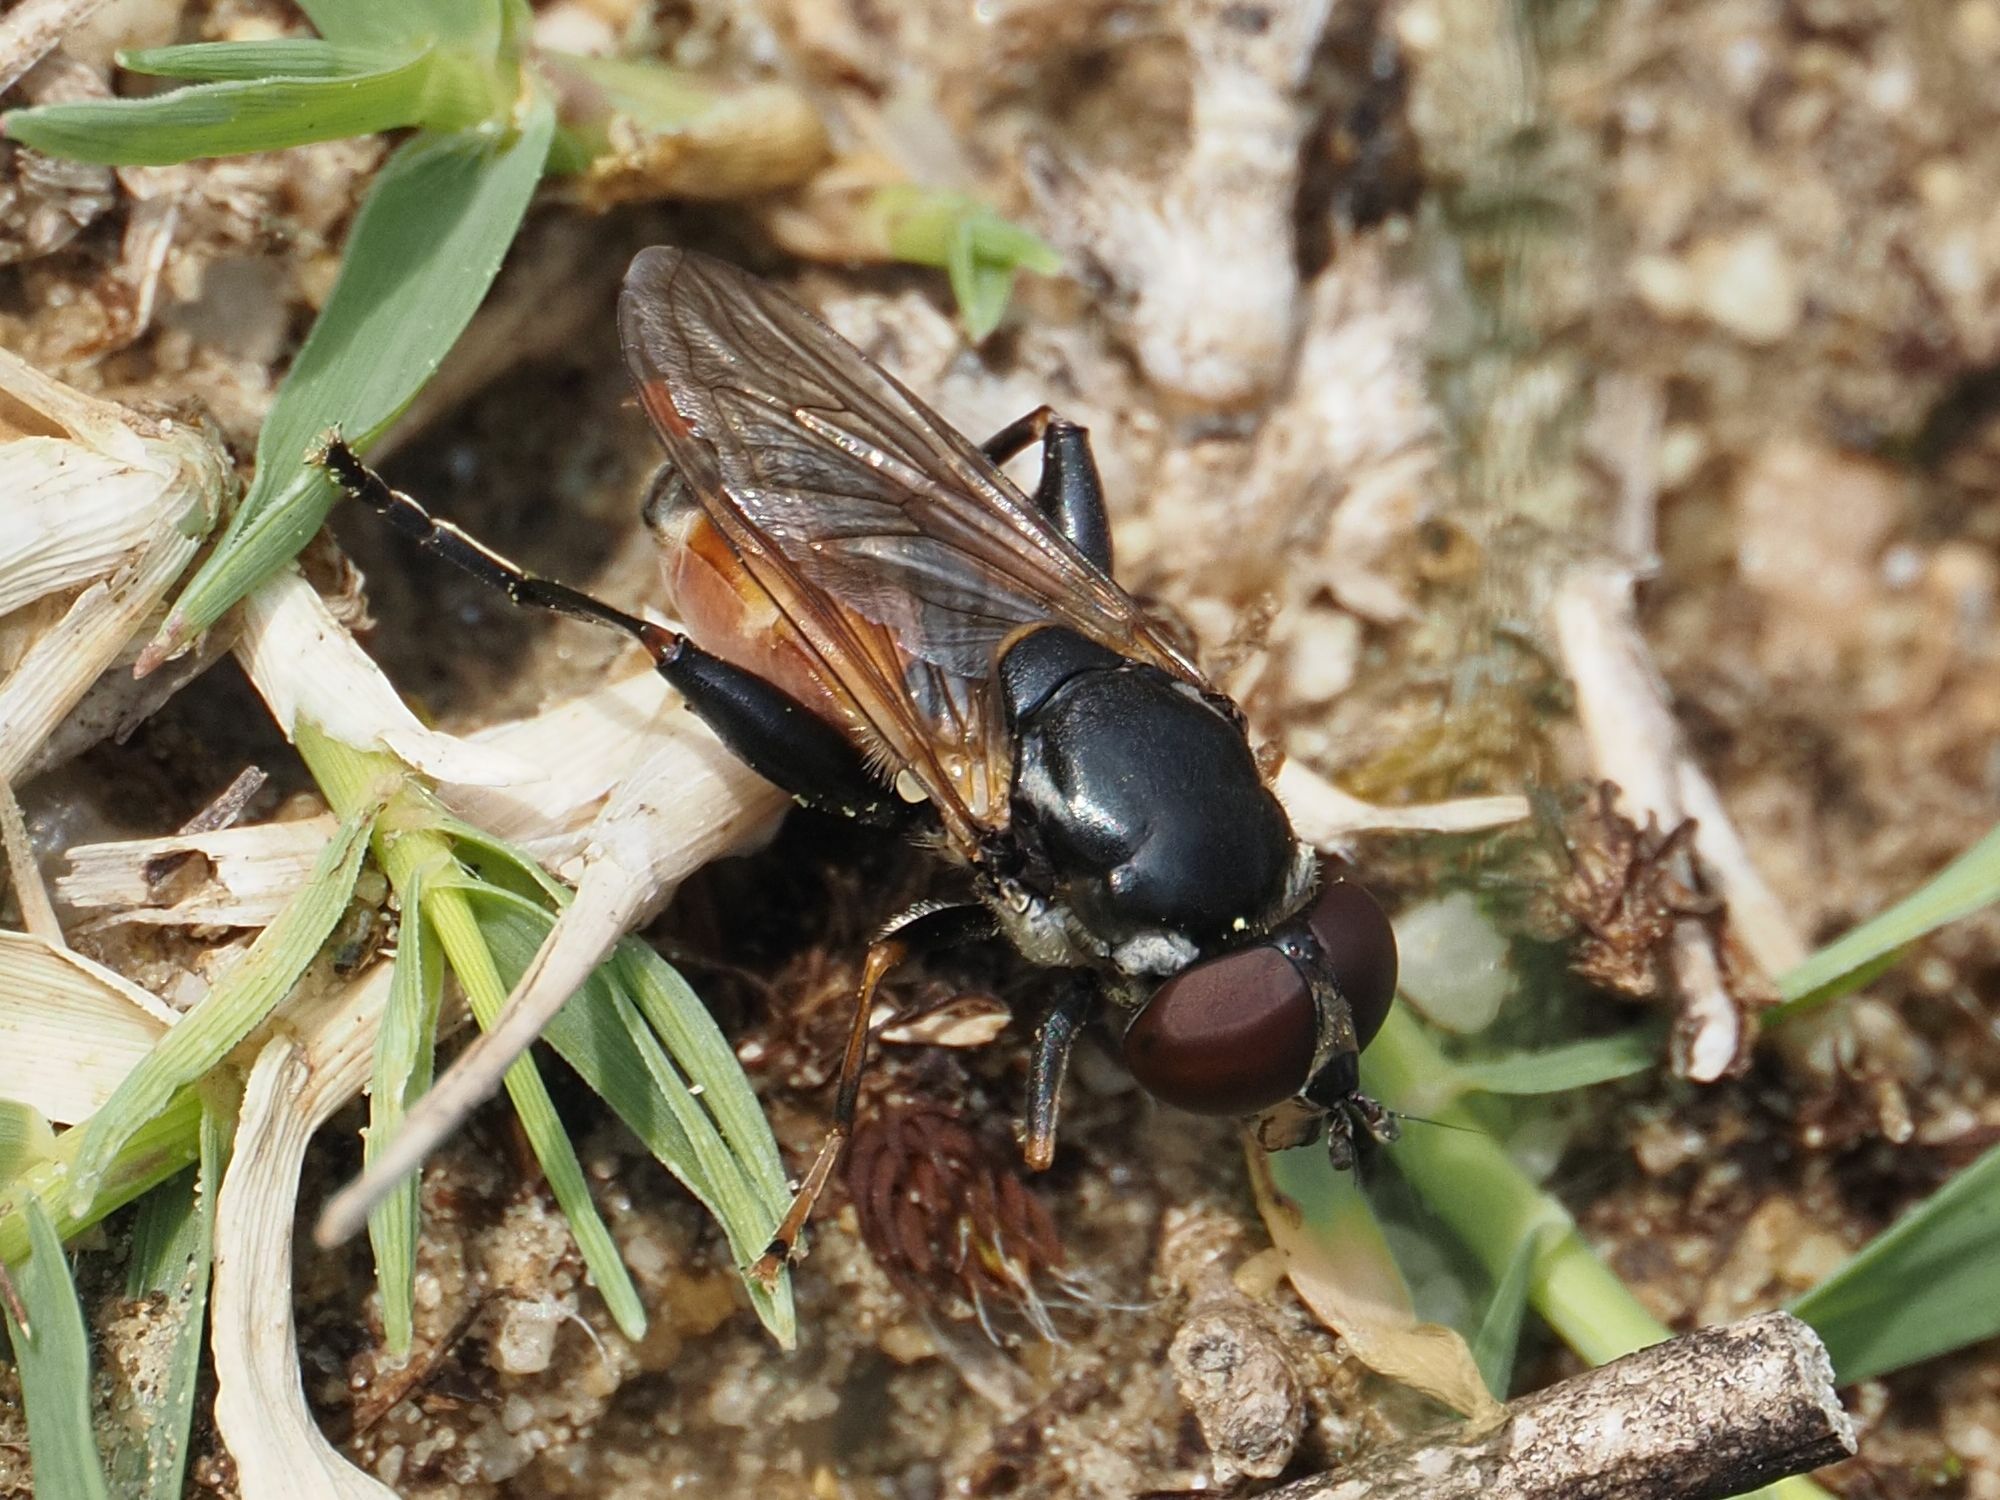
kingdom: Animalia
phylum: Arthropoda
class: Insecta
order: Diptera
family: Syrphidae
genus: Tropidia
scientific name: Tropidia scita
